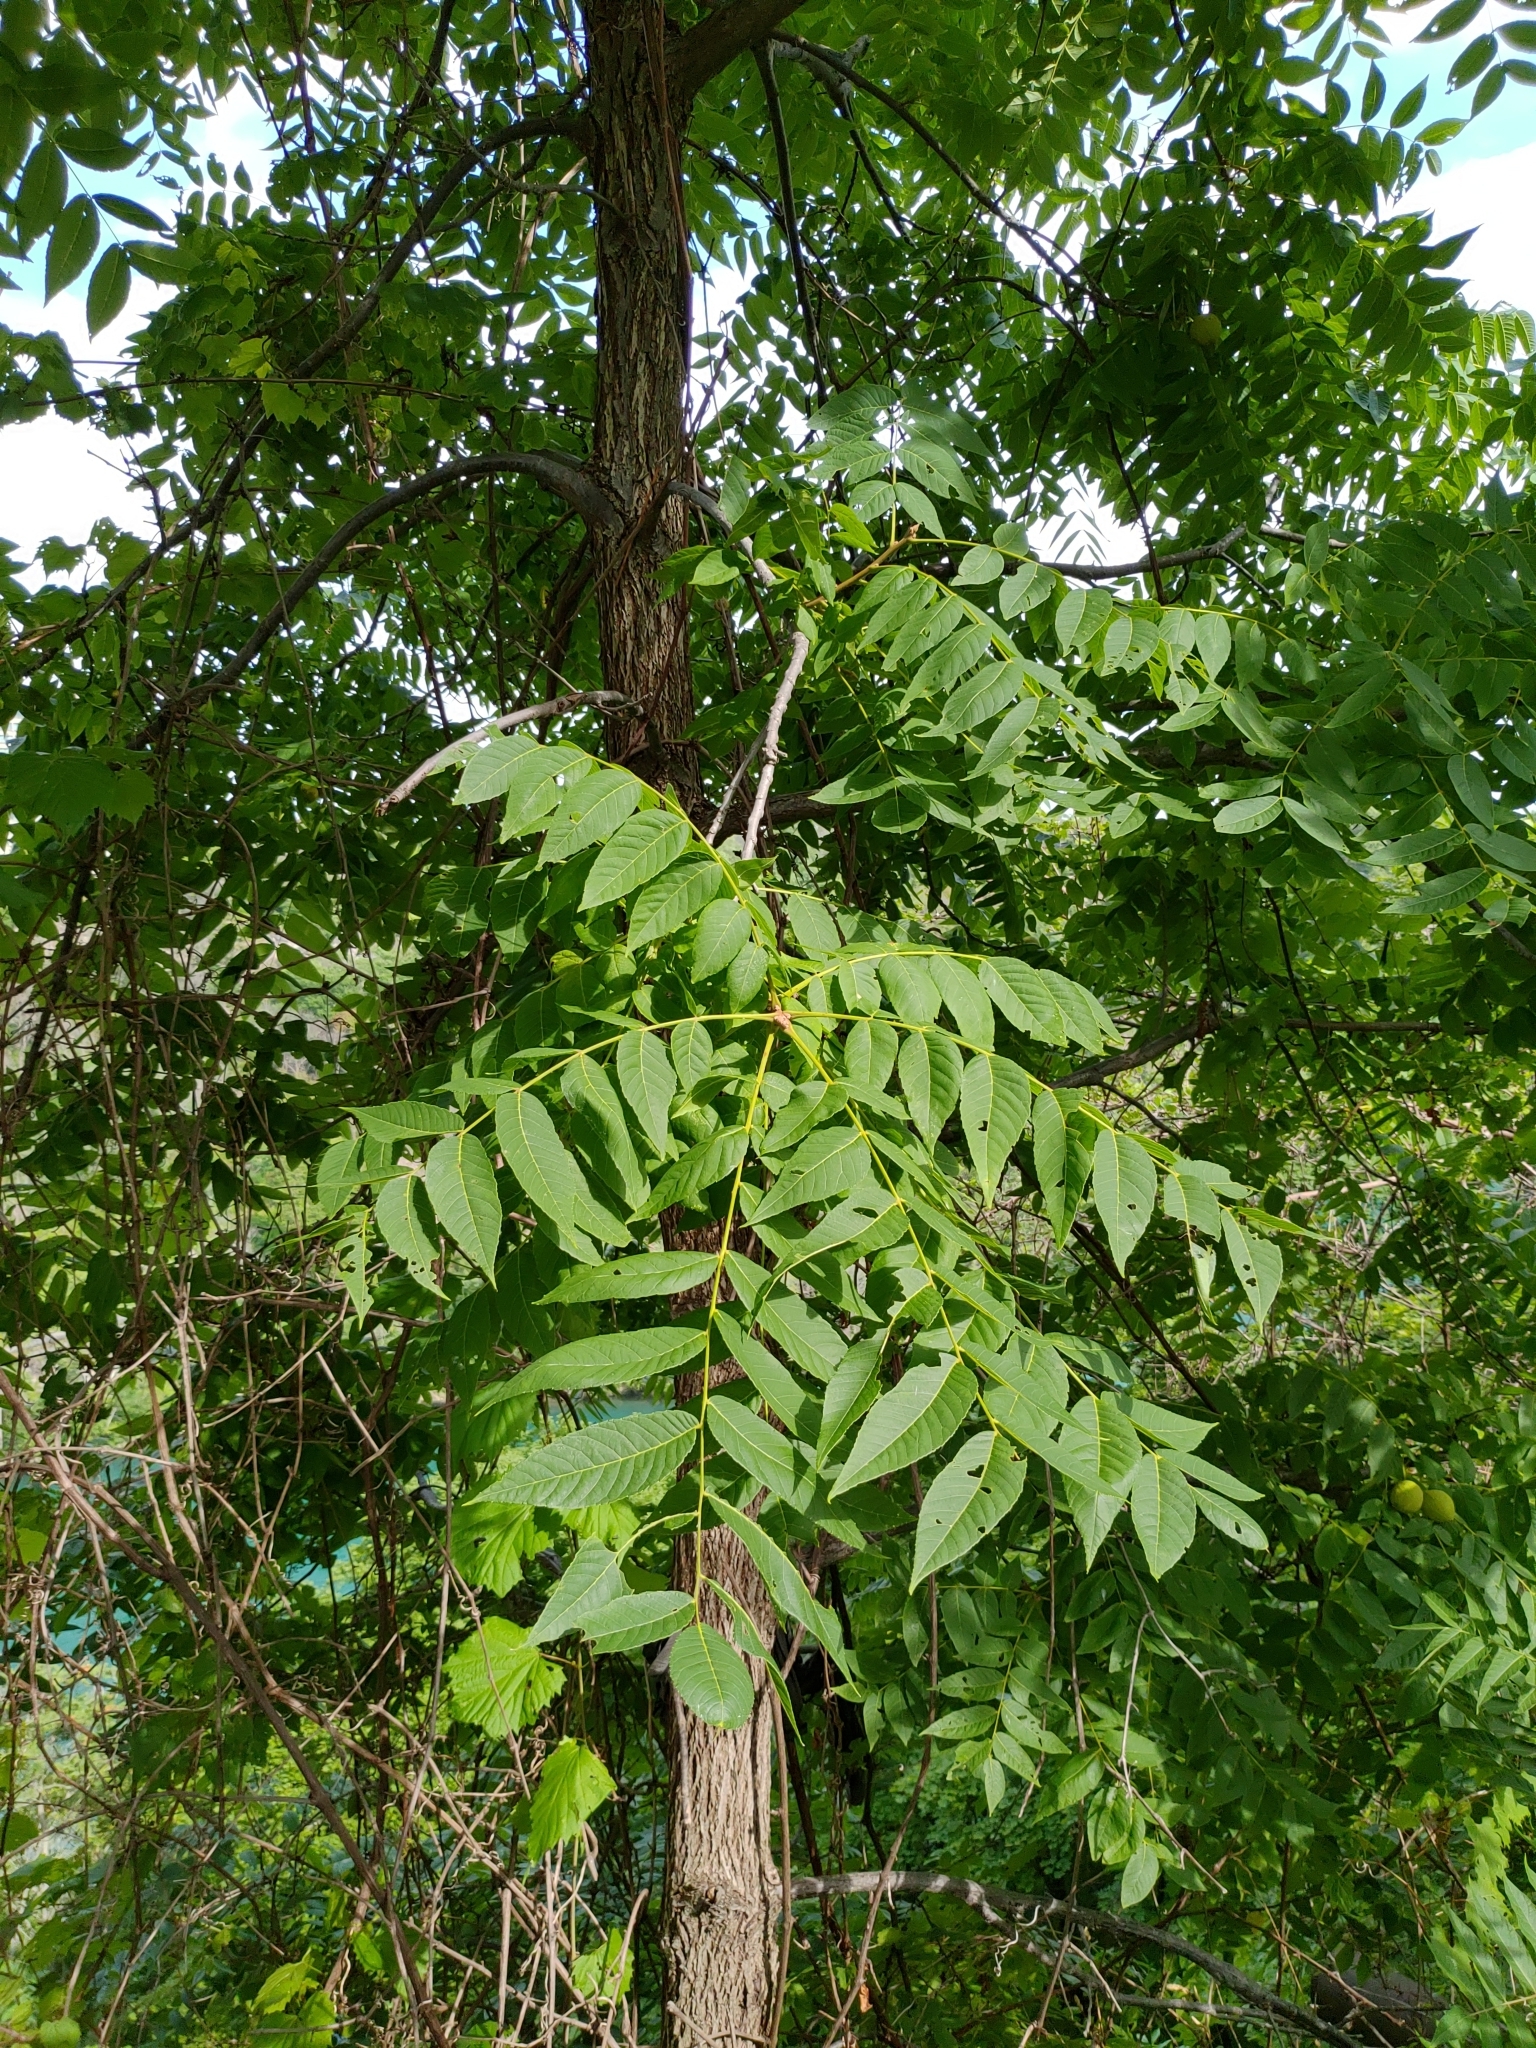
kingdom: Plantae
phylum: Tracheophyta
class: Magnoliopsida
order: Fagales
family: Juglandaceae
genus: Juglans
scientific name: Juglans nigra
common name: Black walnut
